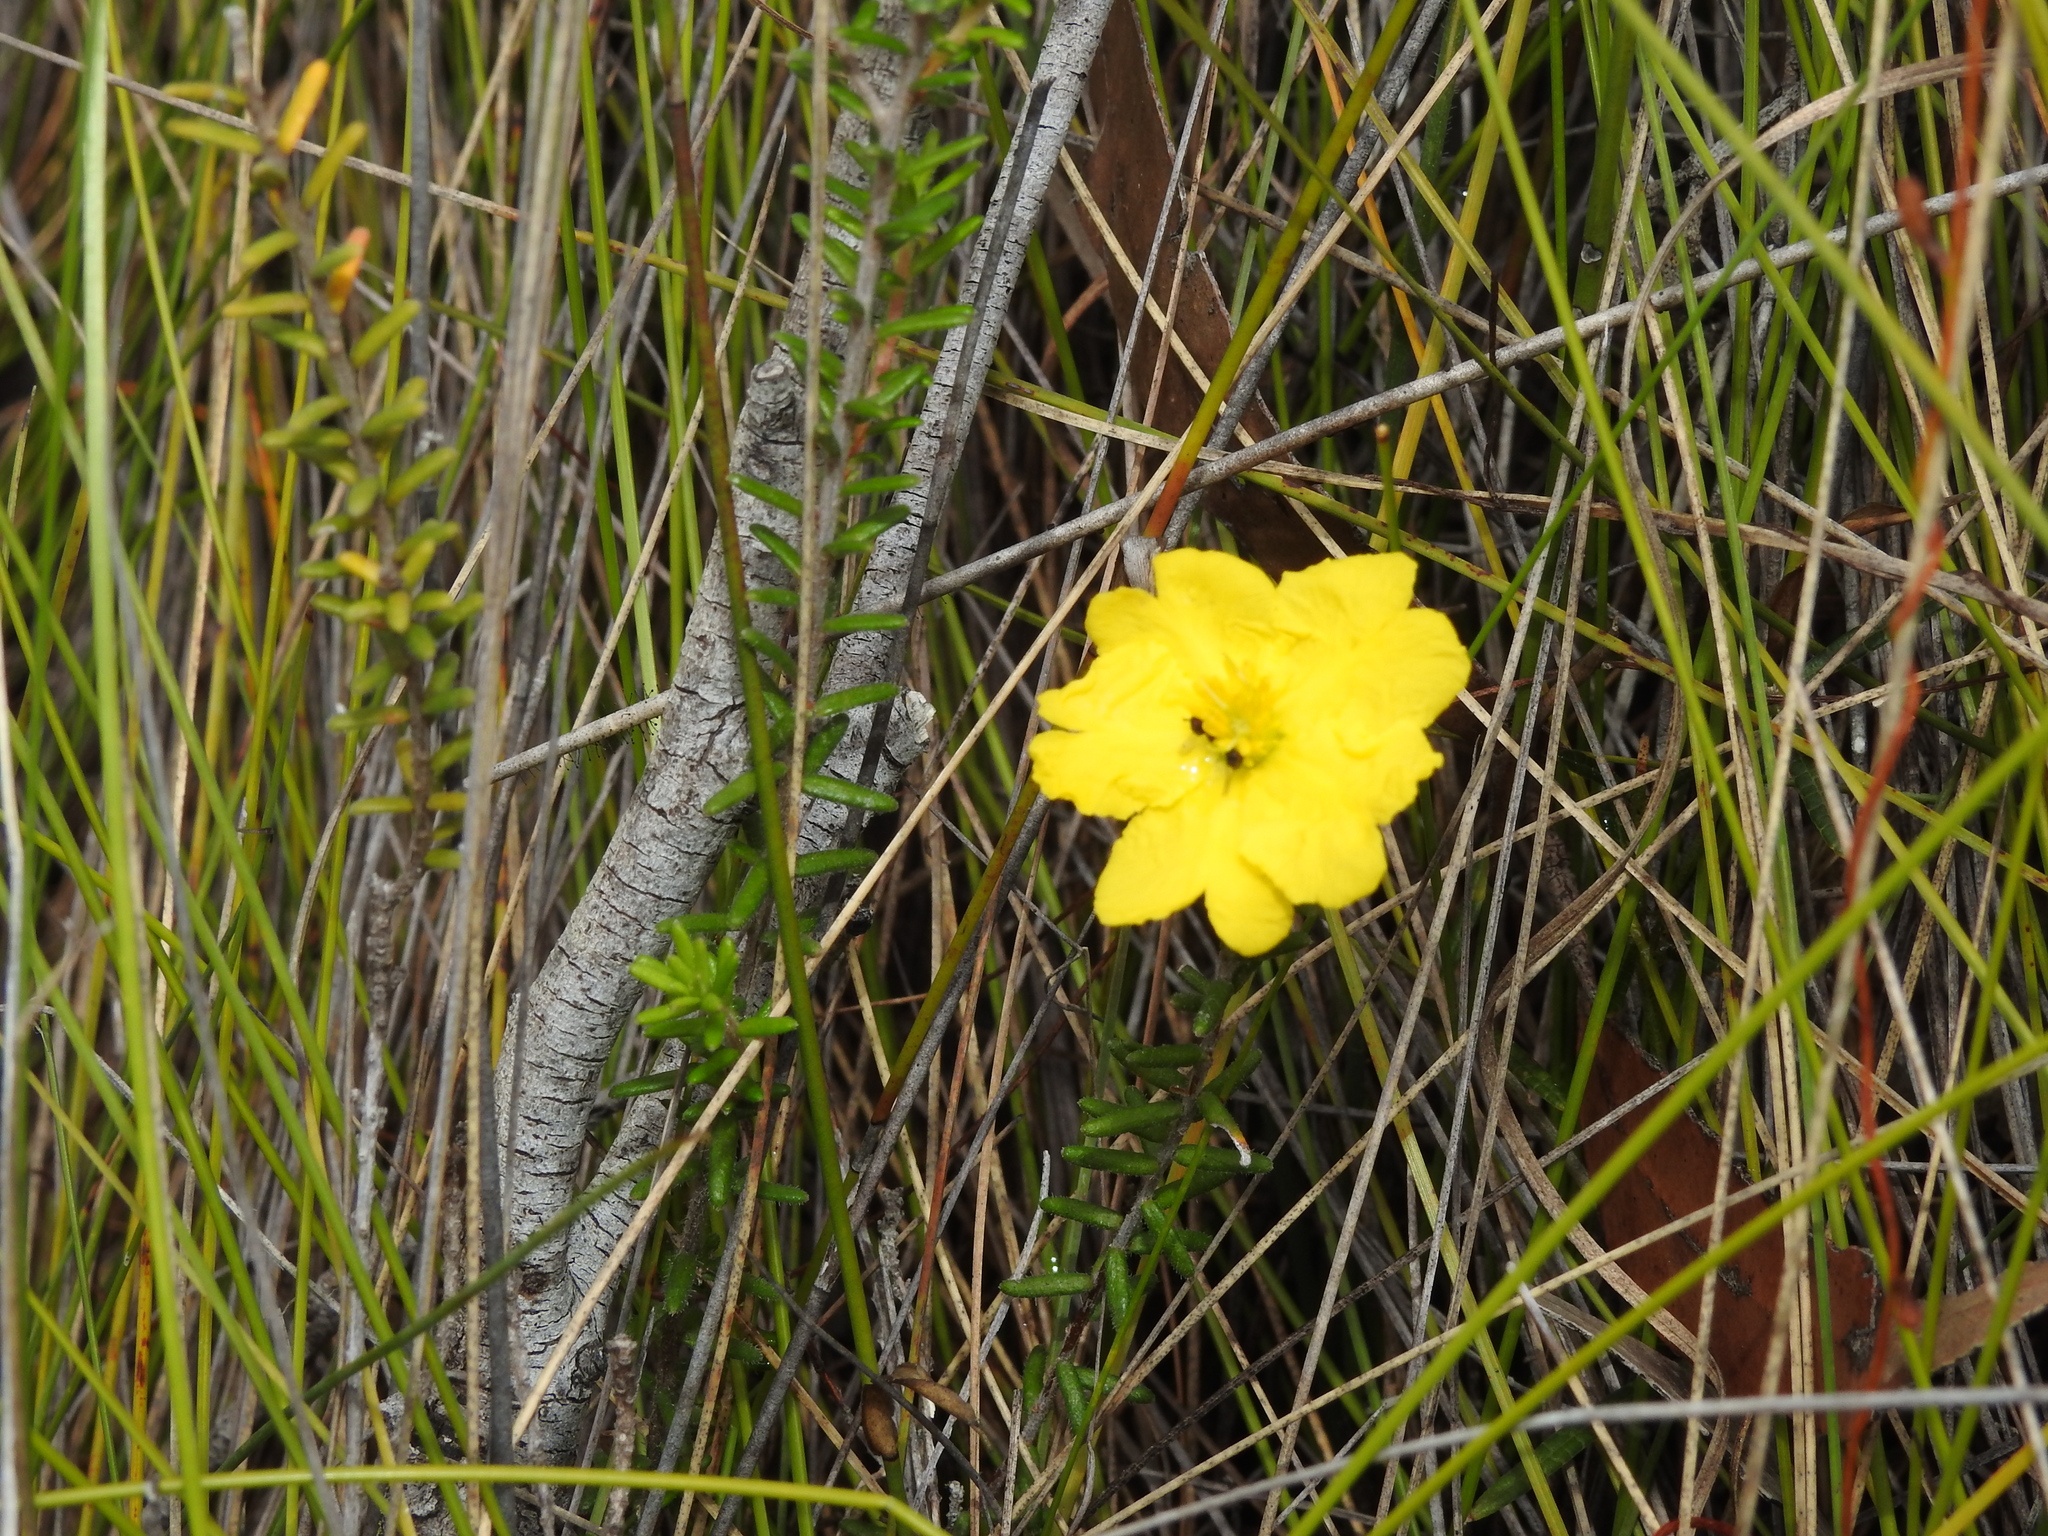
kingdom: Plantae
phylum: Tracheophyta
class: Magnoliopsida
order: Dilleniales
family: Dilleniaceae
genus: Hibbertia
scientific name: Hibbertia vestita
